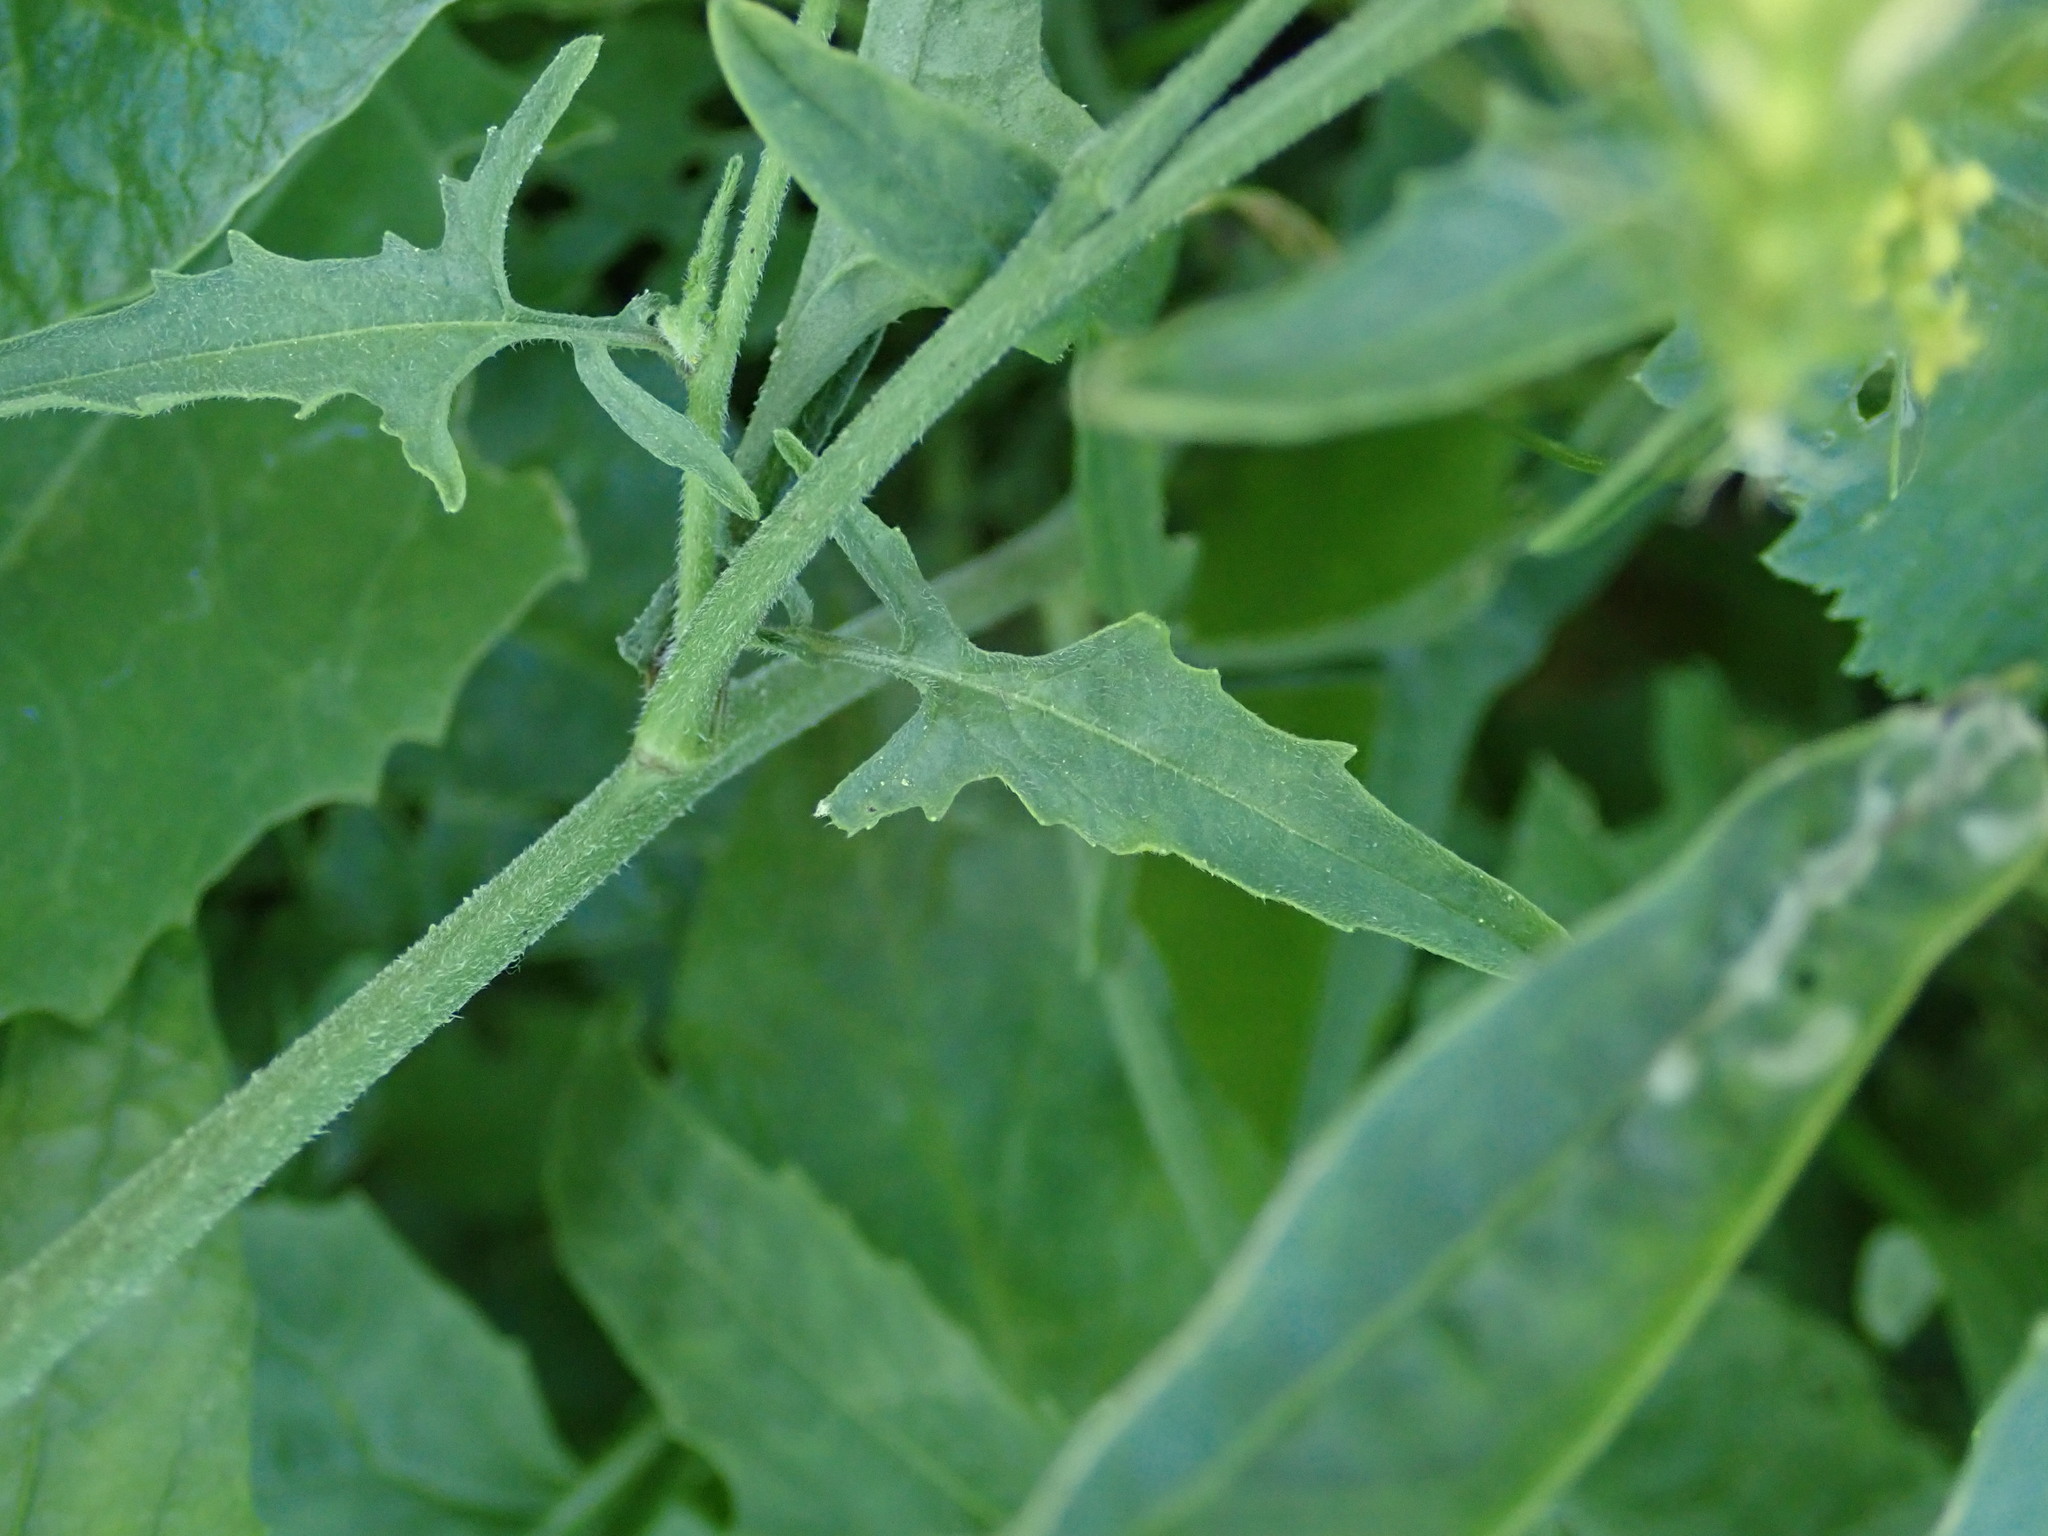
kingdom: Plantae
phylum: Tracheophyta
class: Magnoliopsida
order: Brassicales
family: Brassicaceae
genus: Sisymbrium
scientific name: Sisymbrium officinale
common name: Hedge mustard
